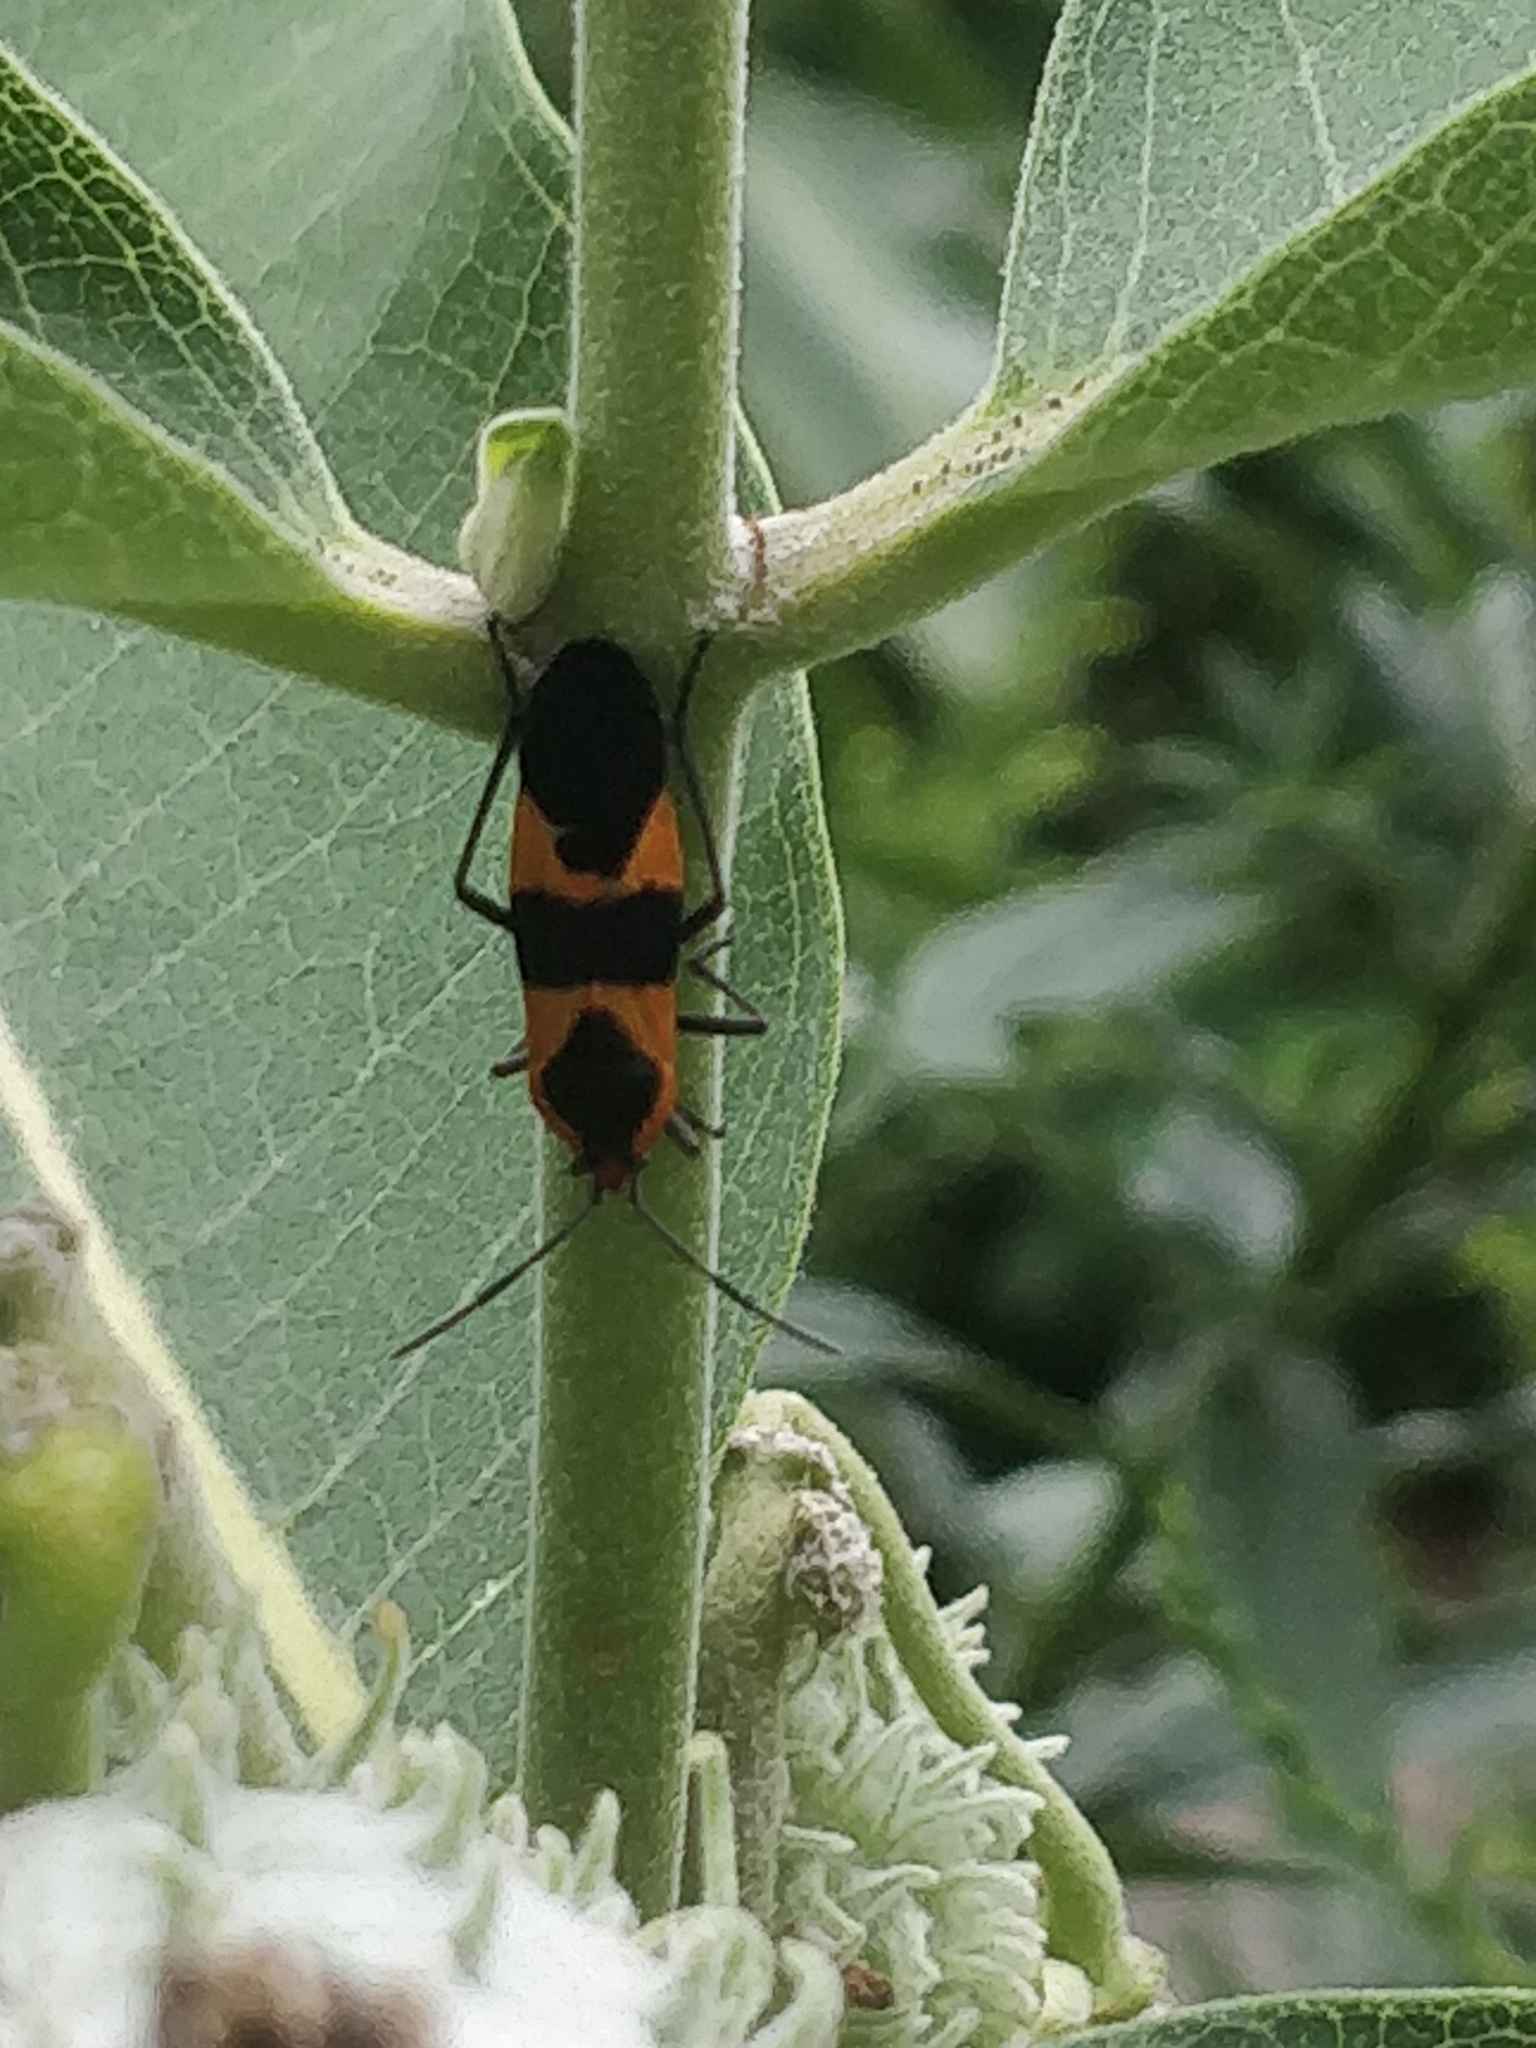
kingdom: Animalia
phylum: Arthropoda
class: Insecta
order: Hemiptera
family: Lygaeidae
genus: Oncopeltus
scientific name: Oncopeltus fasciatus
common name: Large milkweed bug
